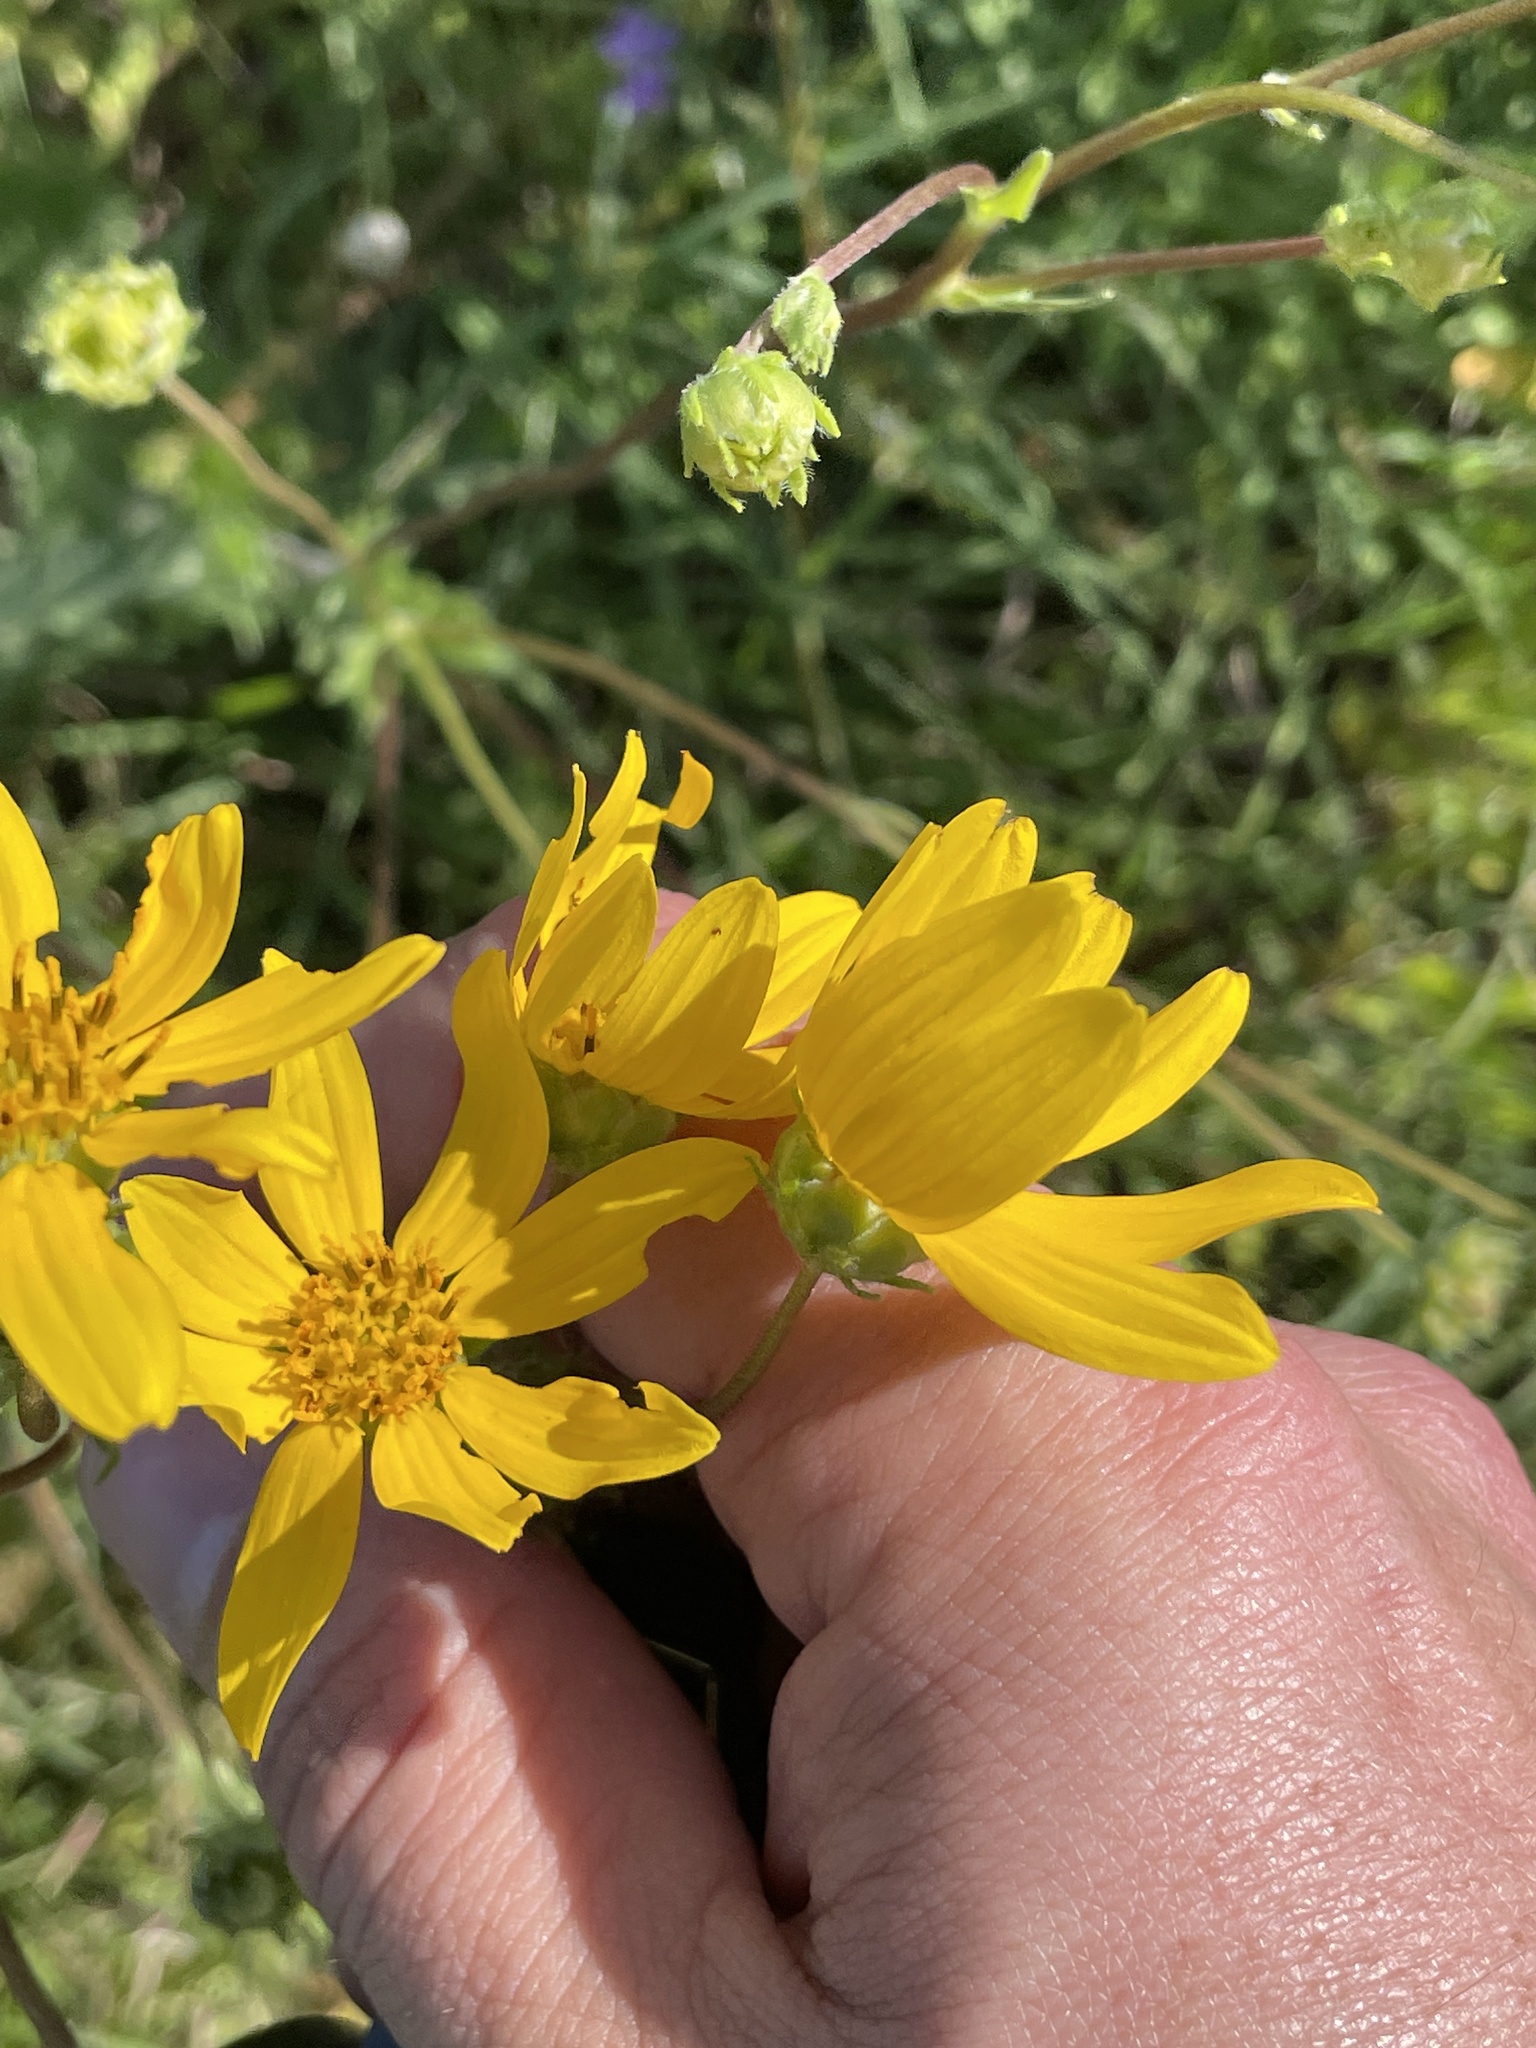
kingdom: Plantae
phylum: Tracheophyta
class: Magnoliopsida
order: Asterales
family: Asteraceae
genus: Engelmannia
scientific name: Engelmannia peristenia
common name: Engelmann's daisy
